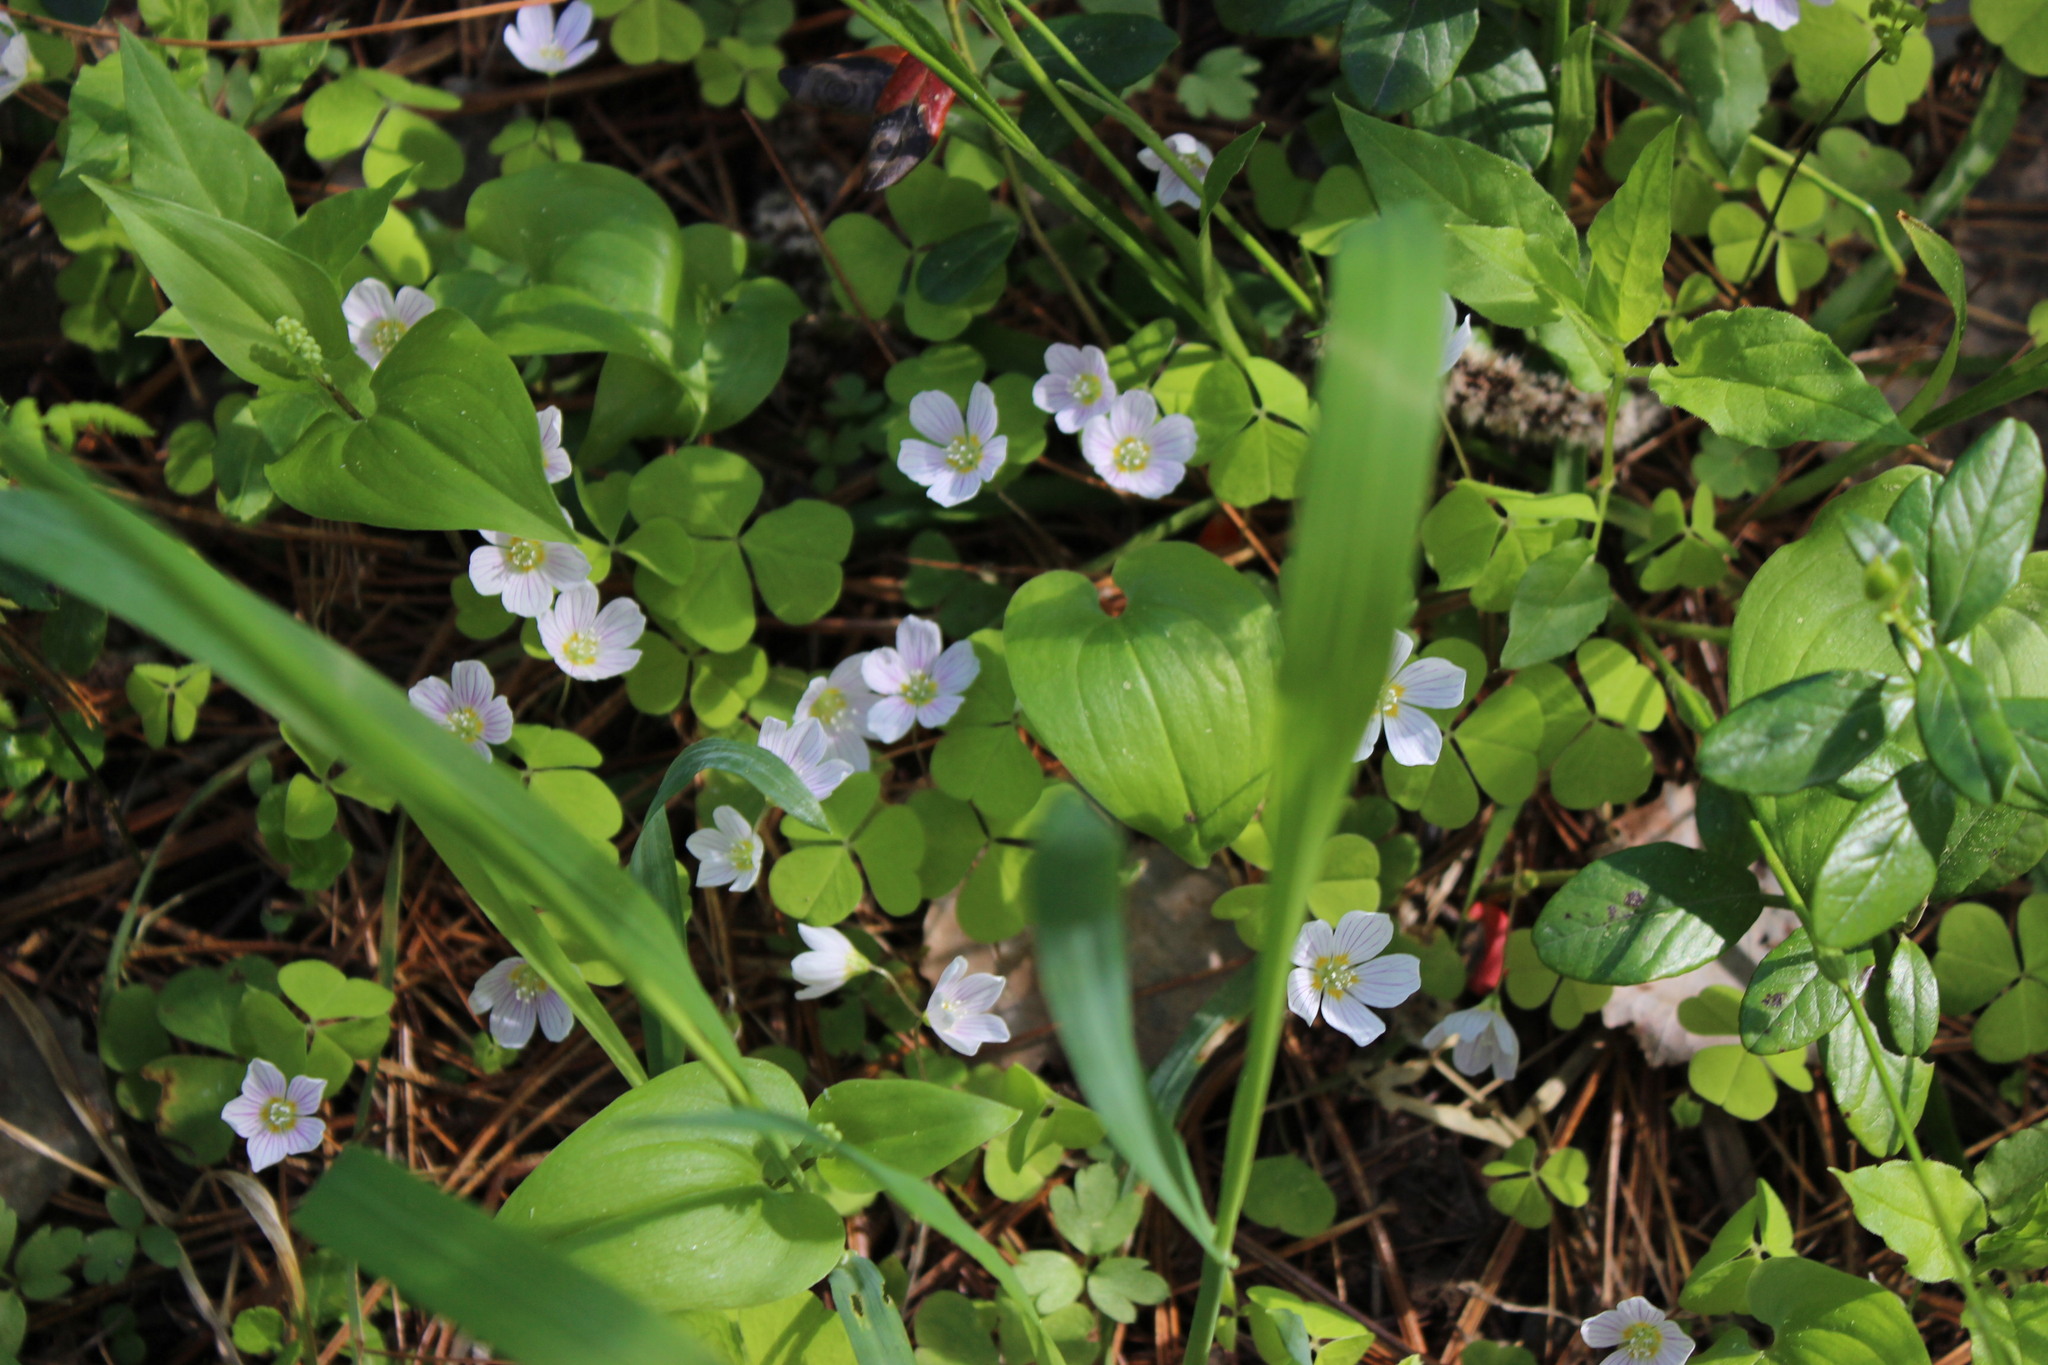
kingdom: Plantae
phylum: Tracheophyta
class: Liliopsida
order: Asparagales
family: Asparagaceae
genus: Maianthemum
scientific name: Maianthemum bifolium
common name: May lily
